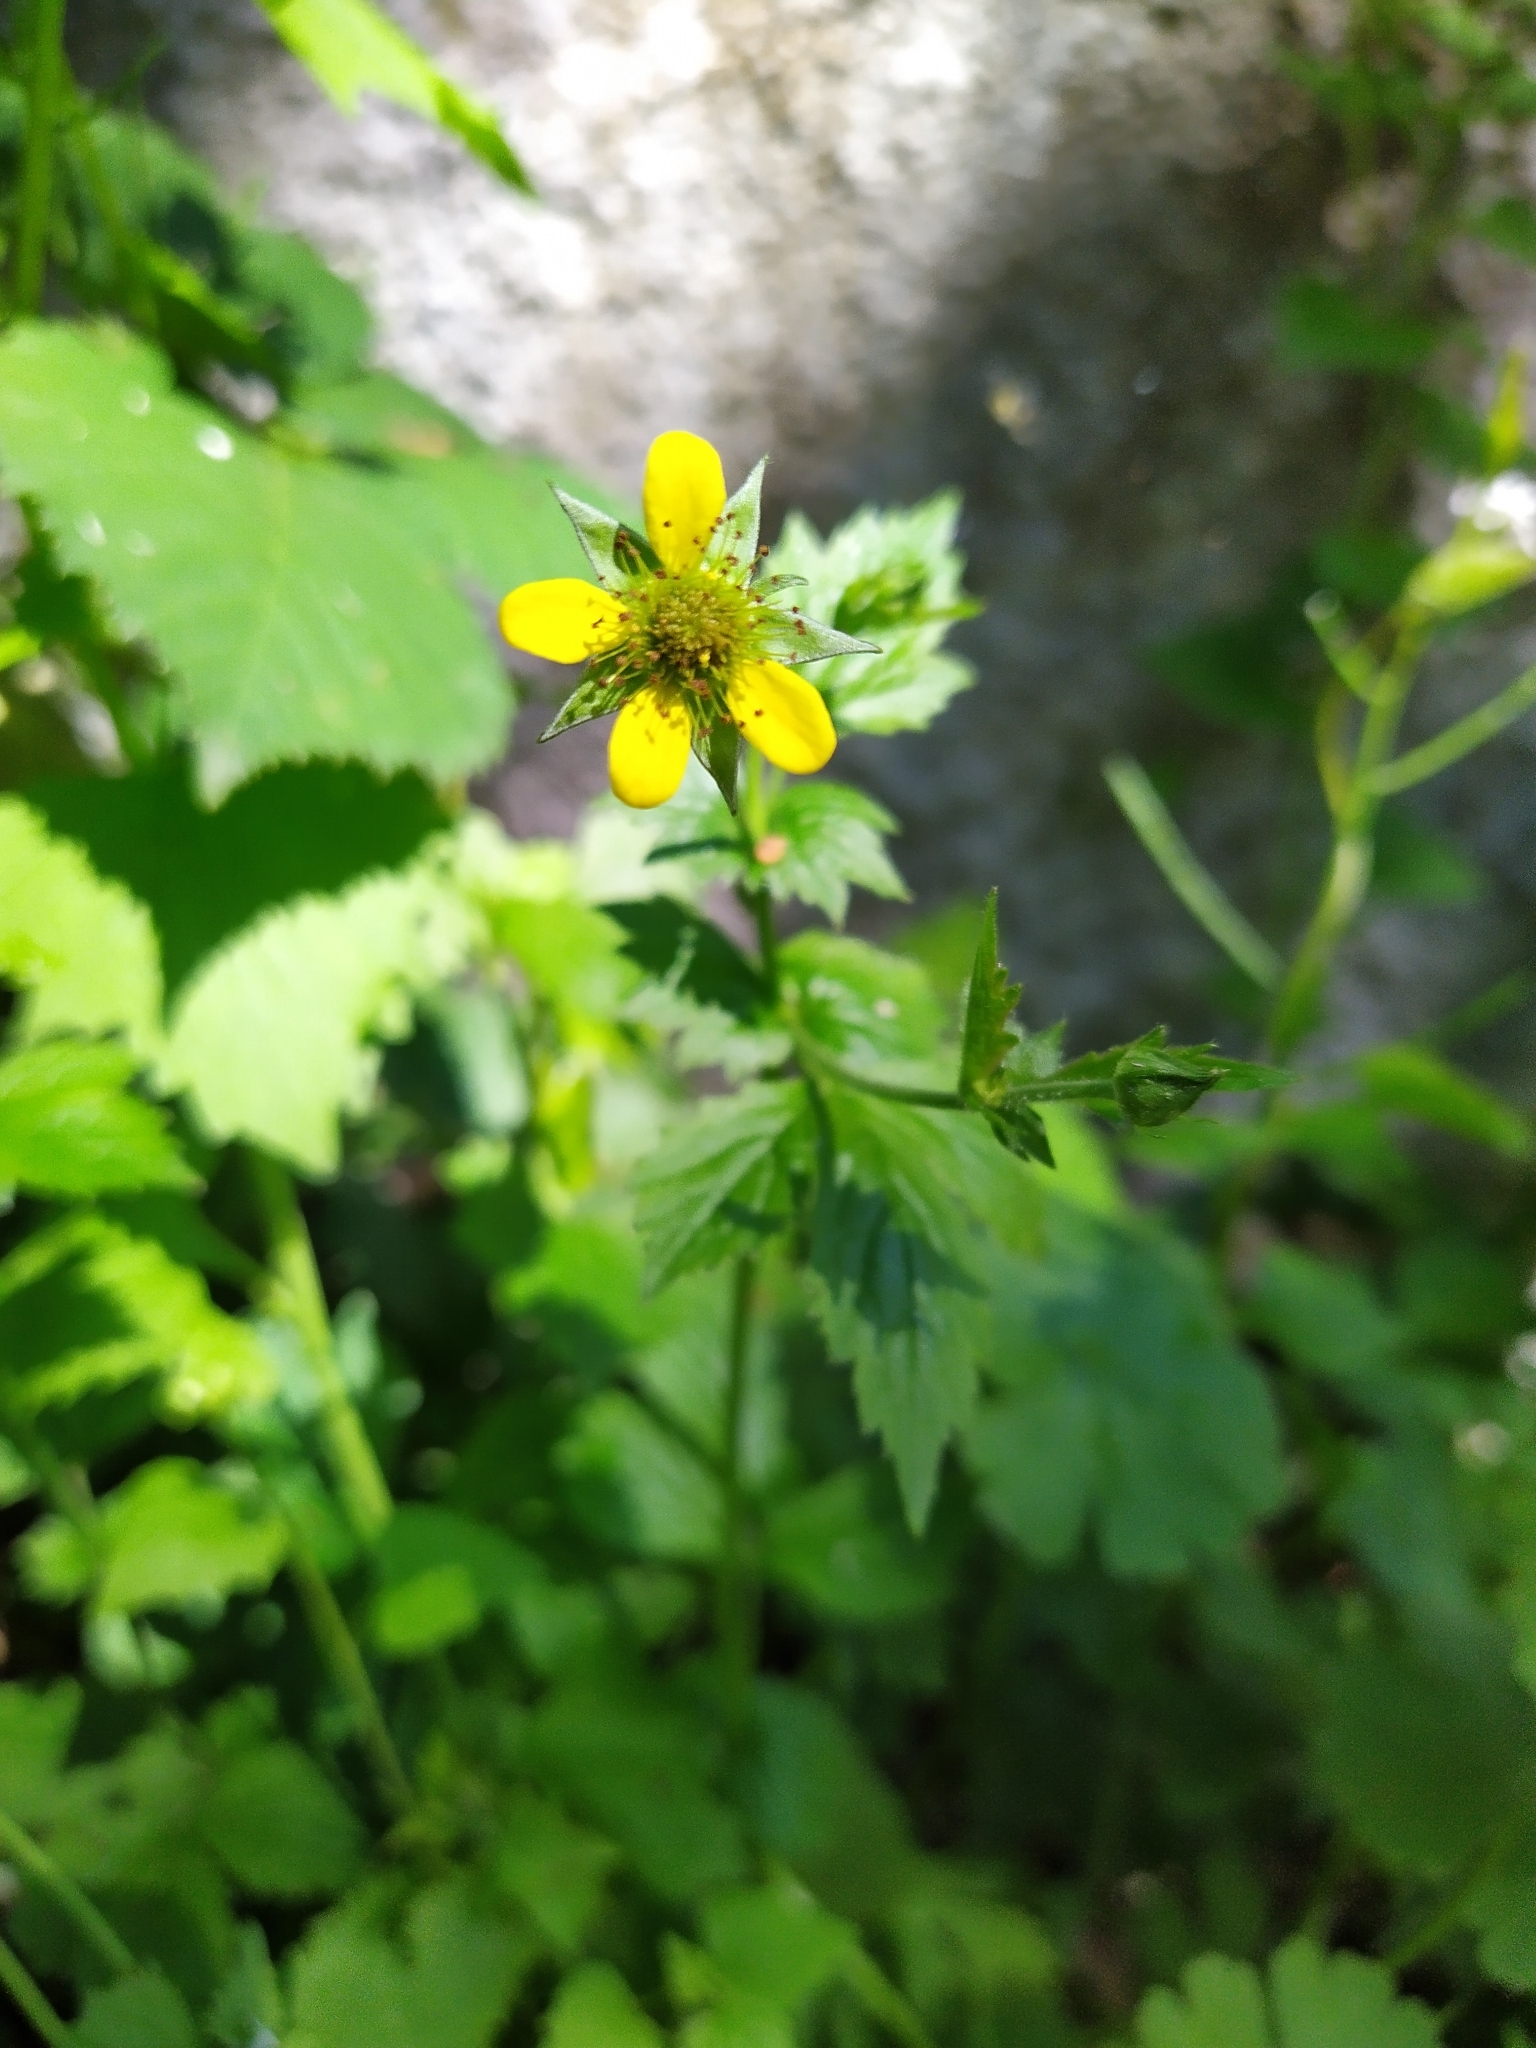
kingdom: Plantae
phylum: Tracheophyta
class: Magnoliopsida
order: Rosales
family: Rosaceae
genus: Geum
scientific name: Geum urbanum
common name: Wood avens
